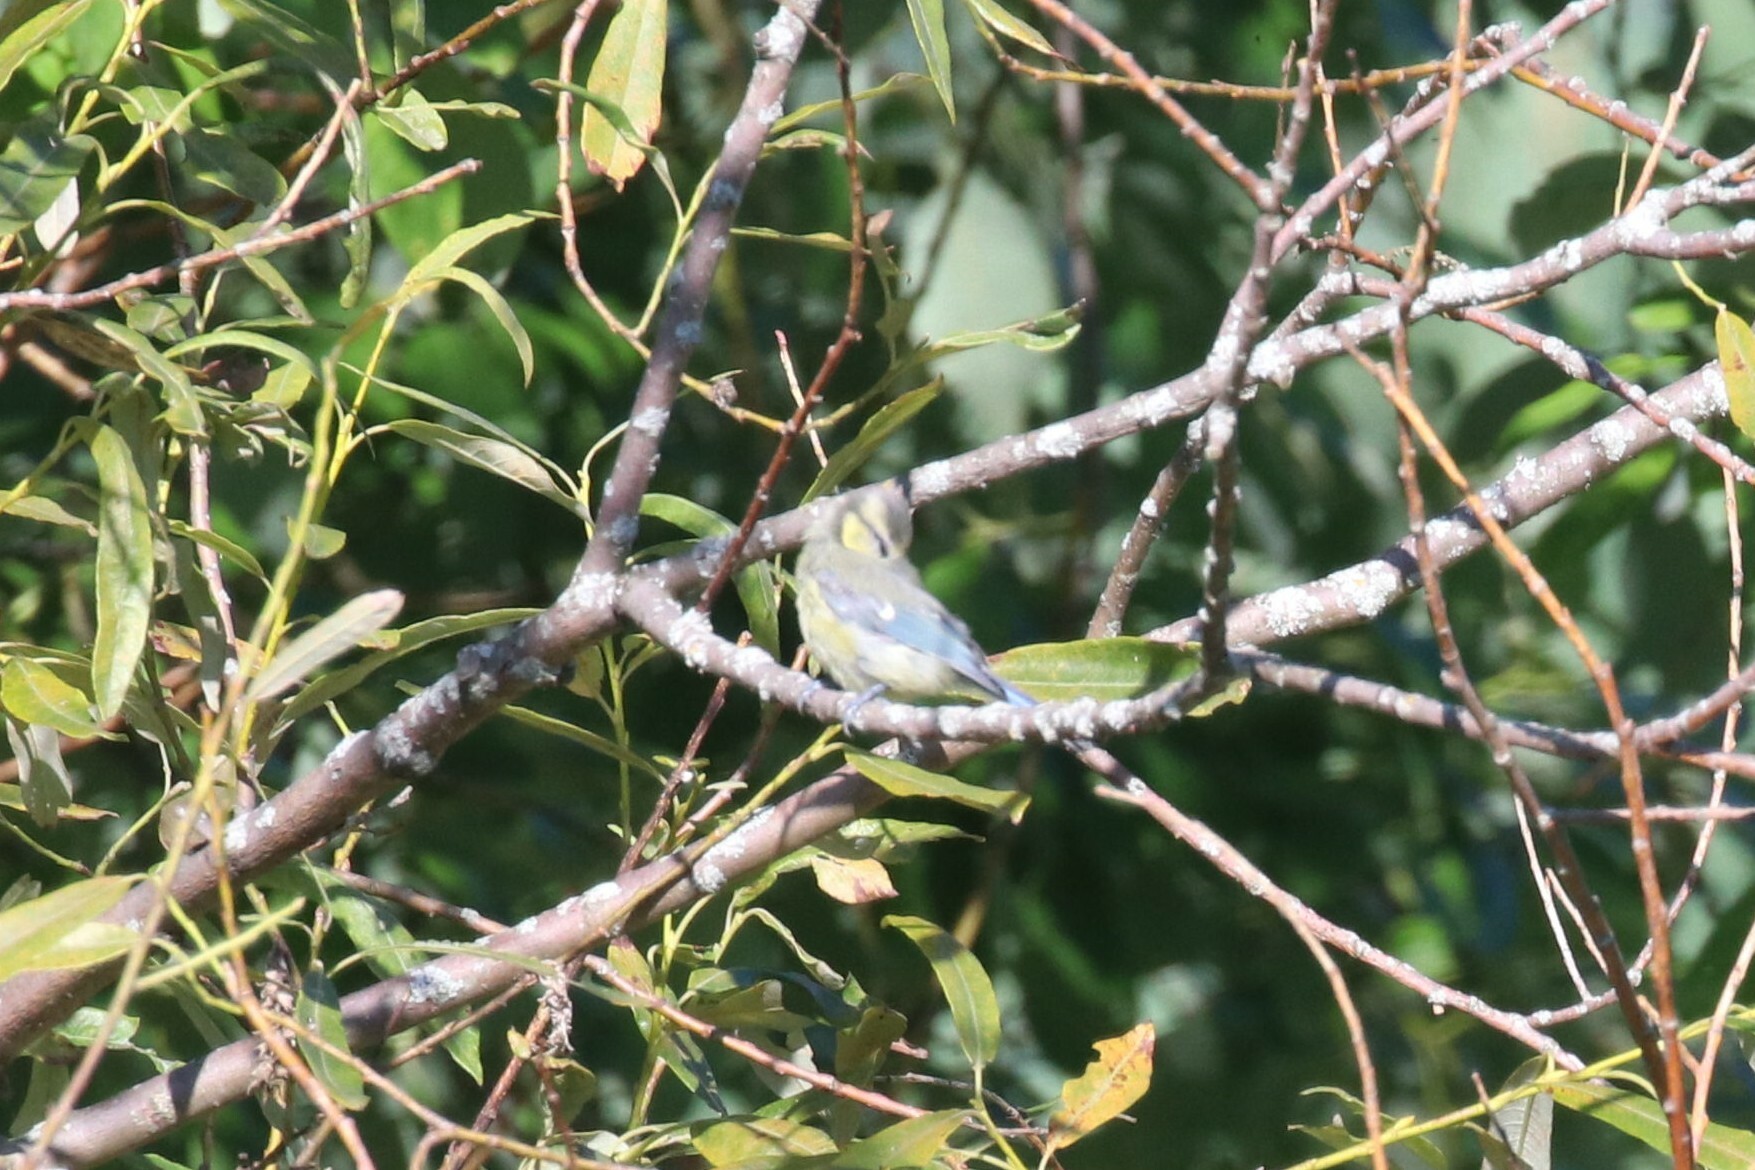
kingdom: Animalia
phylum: Chordata
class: Aves
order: Passeriformes
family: Paridae
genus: Cyanistes
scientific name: Cyanistes caeruleus
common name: Eurasian blue tit
